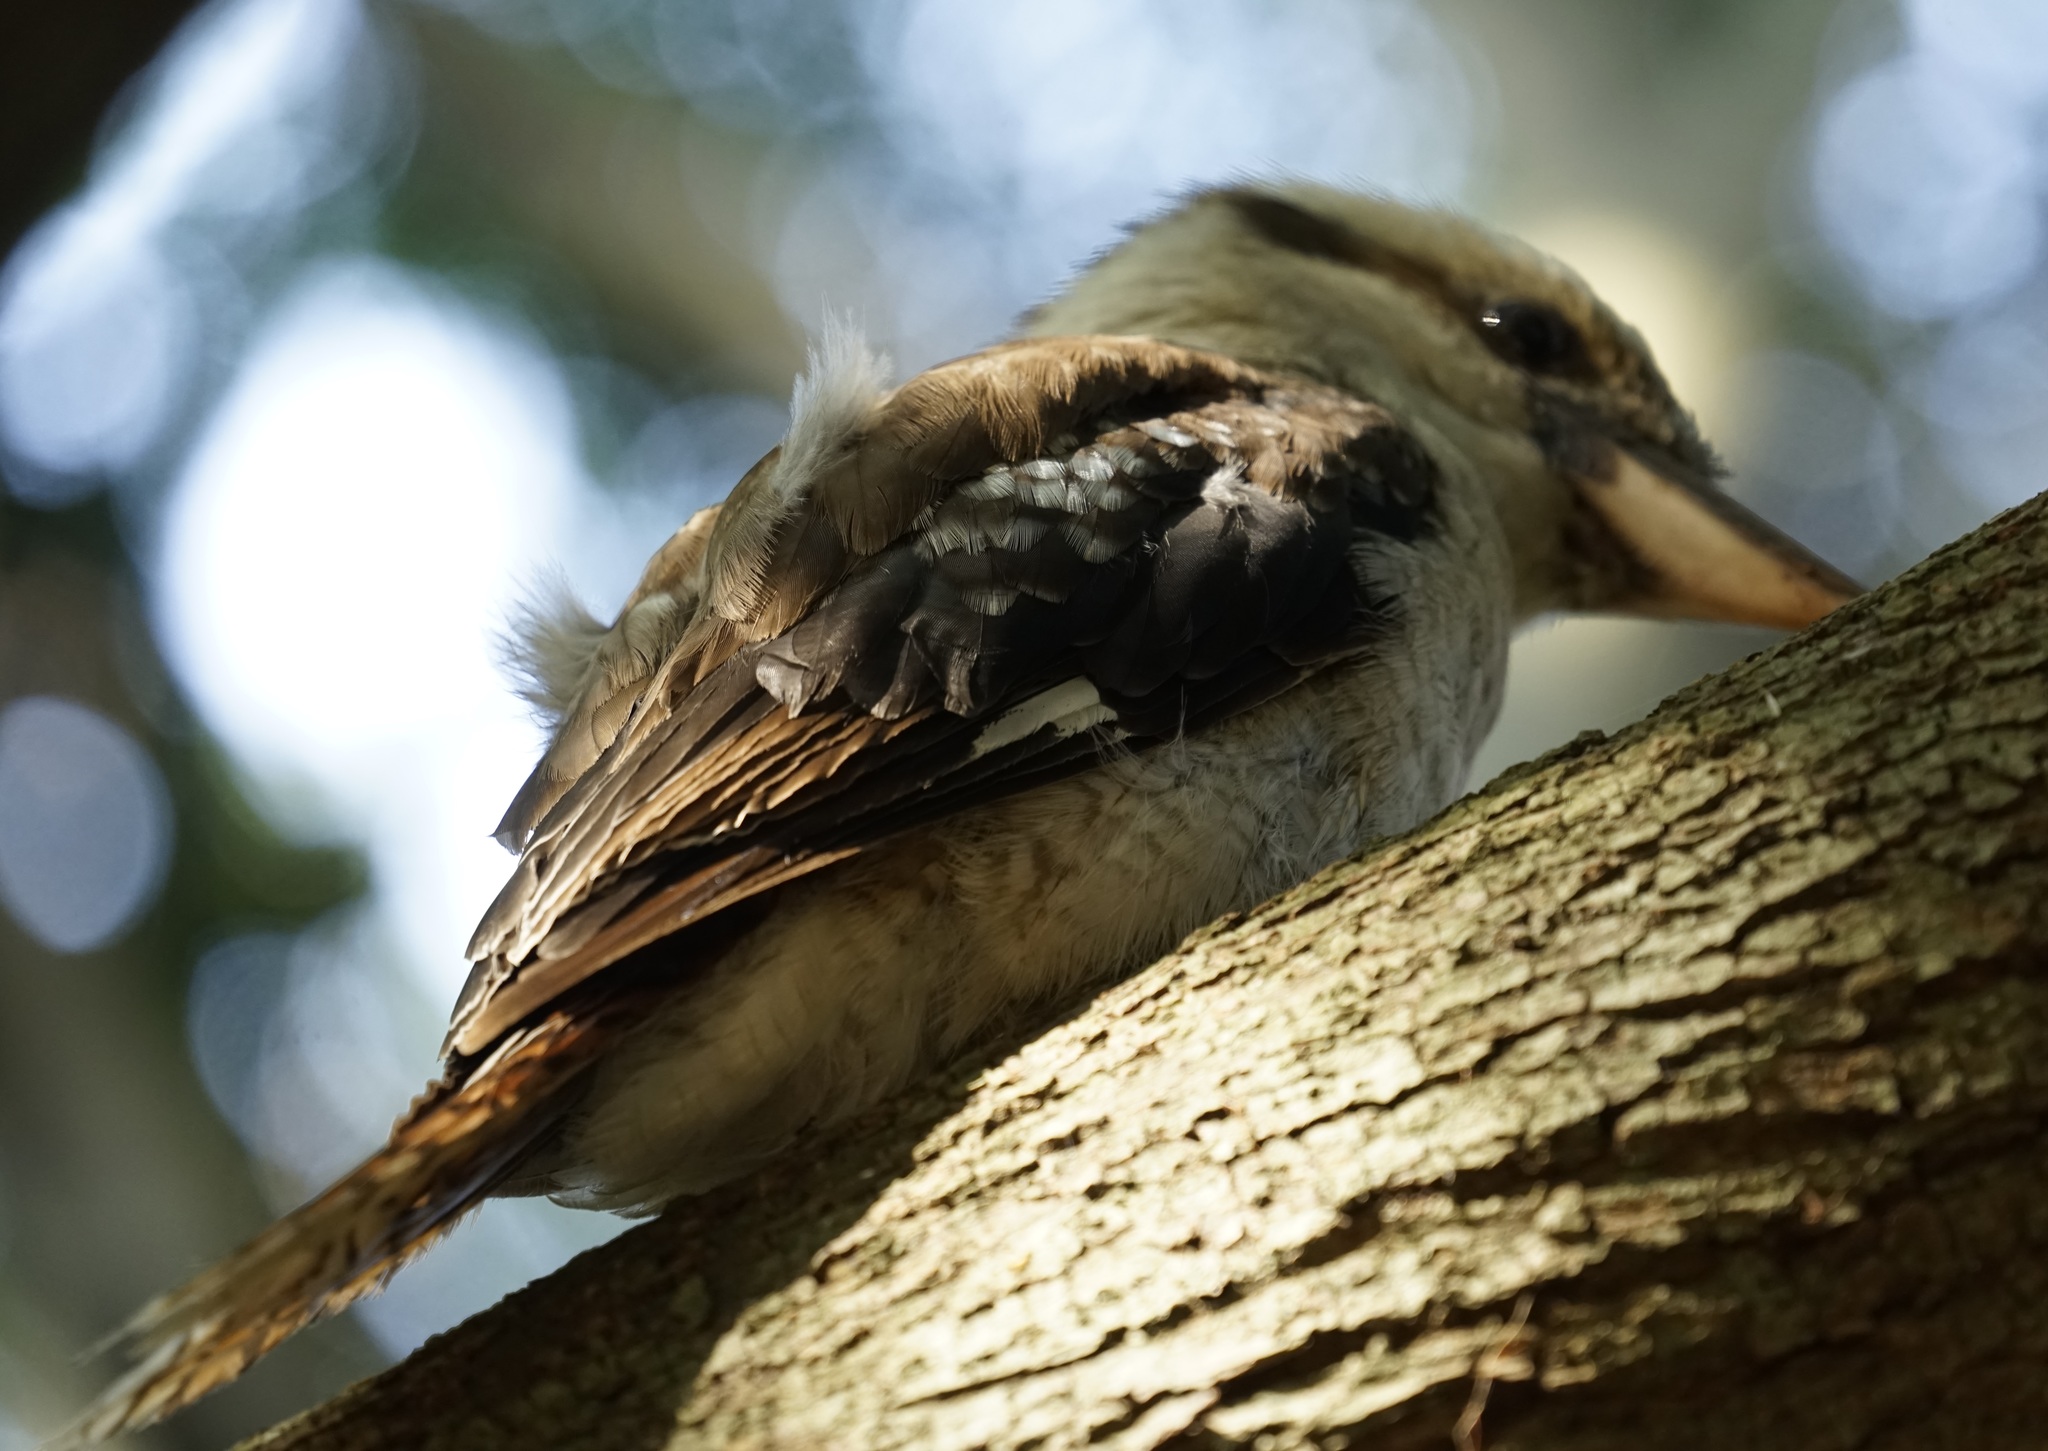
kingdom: Animalia
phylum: Chordata
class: Aves
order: Coraciiformes
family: Alcedinidae
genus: Dacelo
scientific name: Dacelo novaeguineae
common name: Laughing kookaburra
